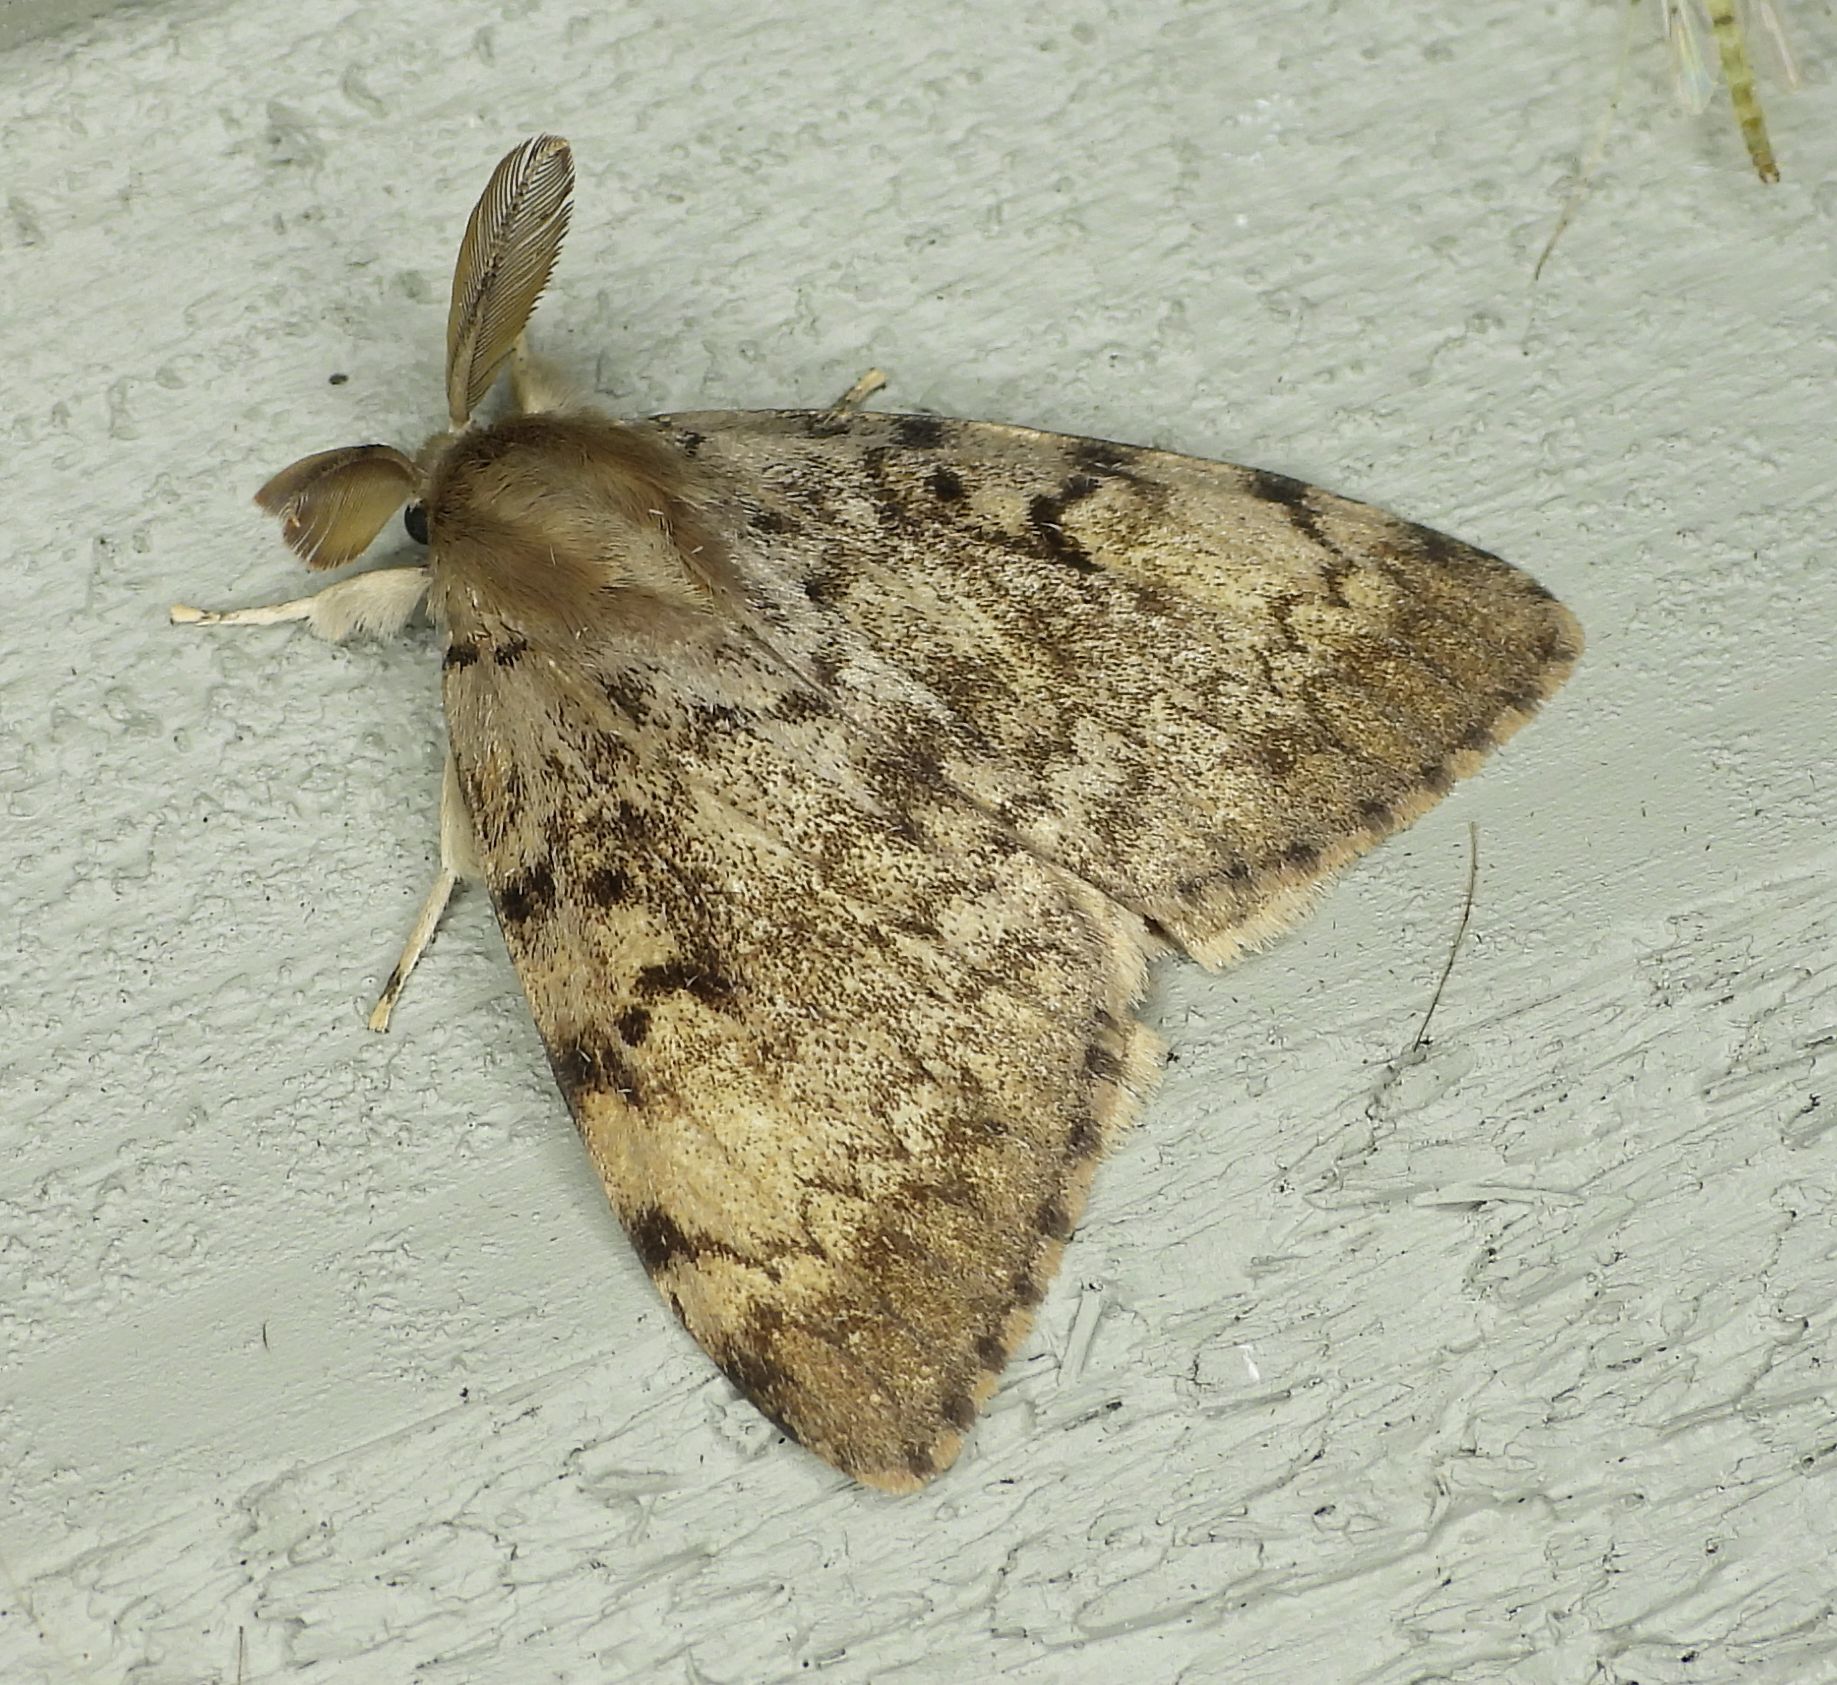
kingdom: Animalia
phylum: Arthropoda
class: Insecta
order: Lepidoptera
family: Erebidae
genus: Lymantria
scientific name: Lymantria dispar
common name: Gypsy moth
